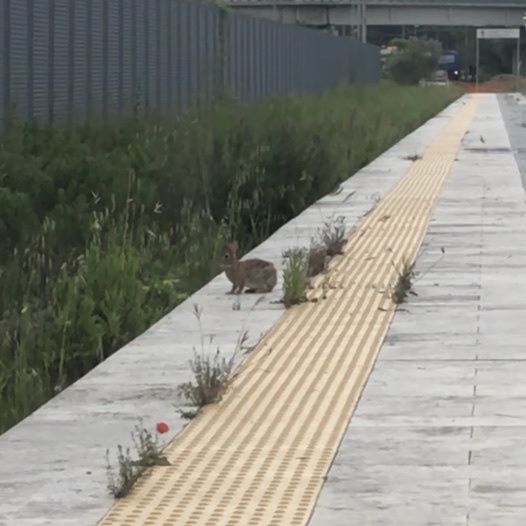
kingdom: Animalia
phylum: Chordata
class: Mammalia
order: Lagomorpha
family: Leporidae
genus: Sylvilagus
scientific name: Sylvilagus floridanus
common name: Eastern cottontail
